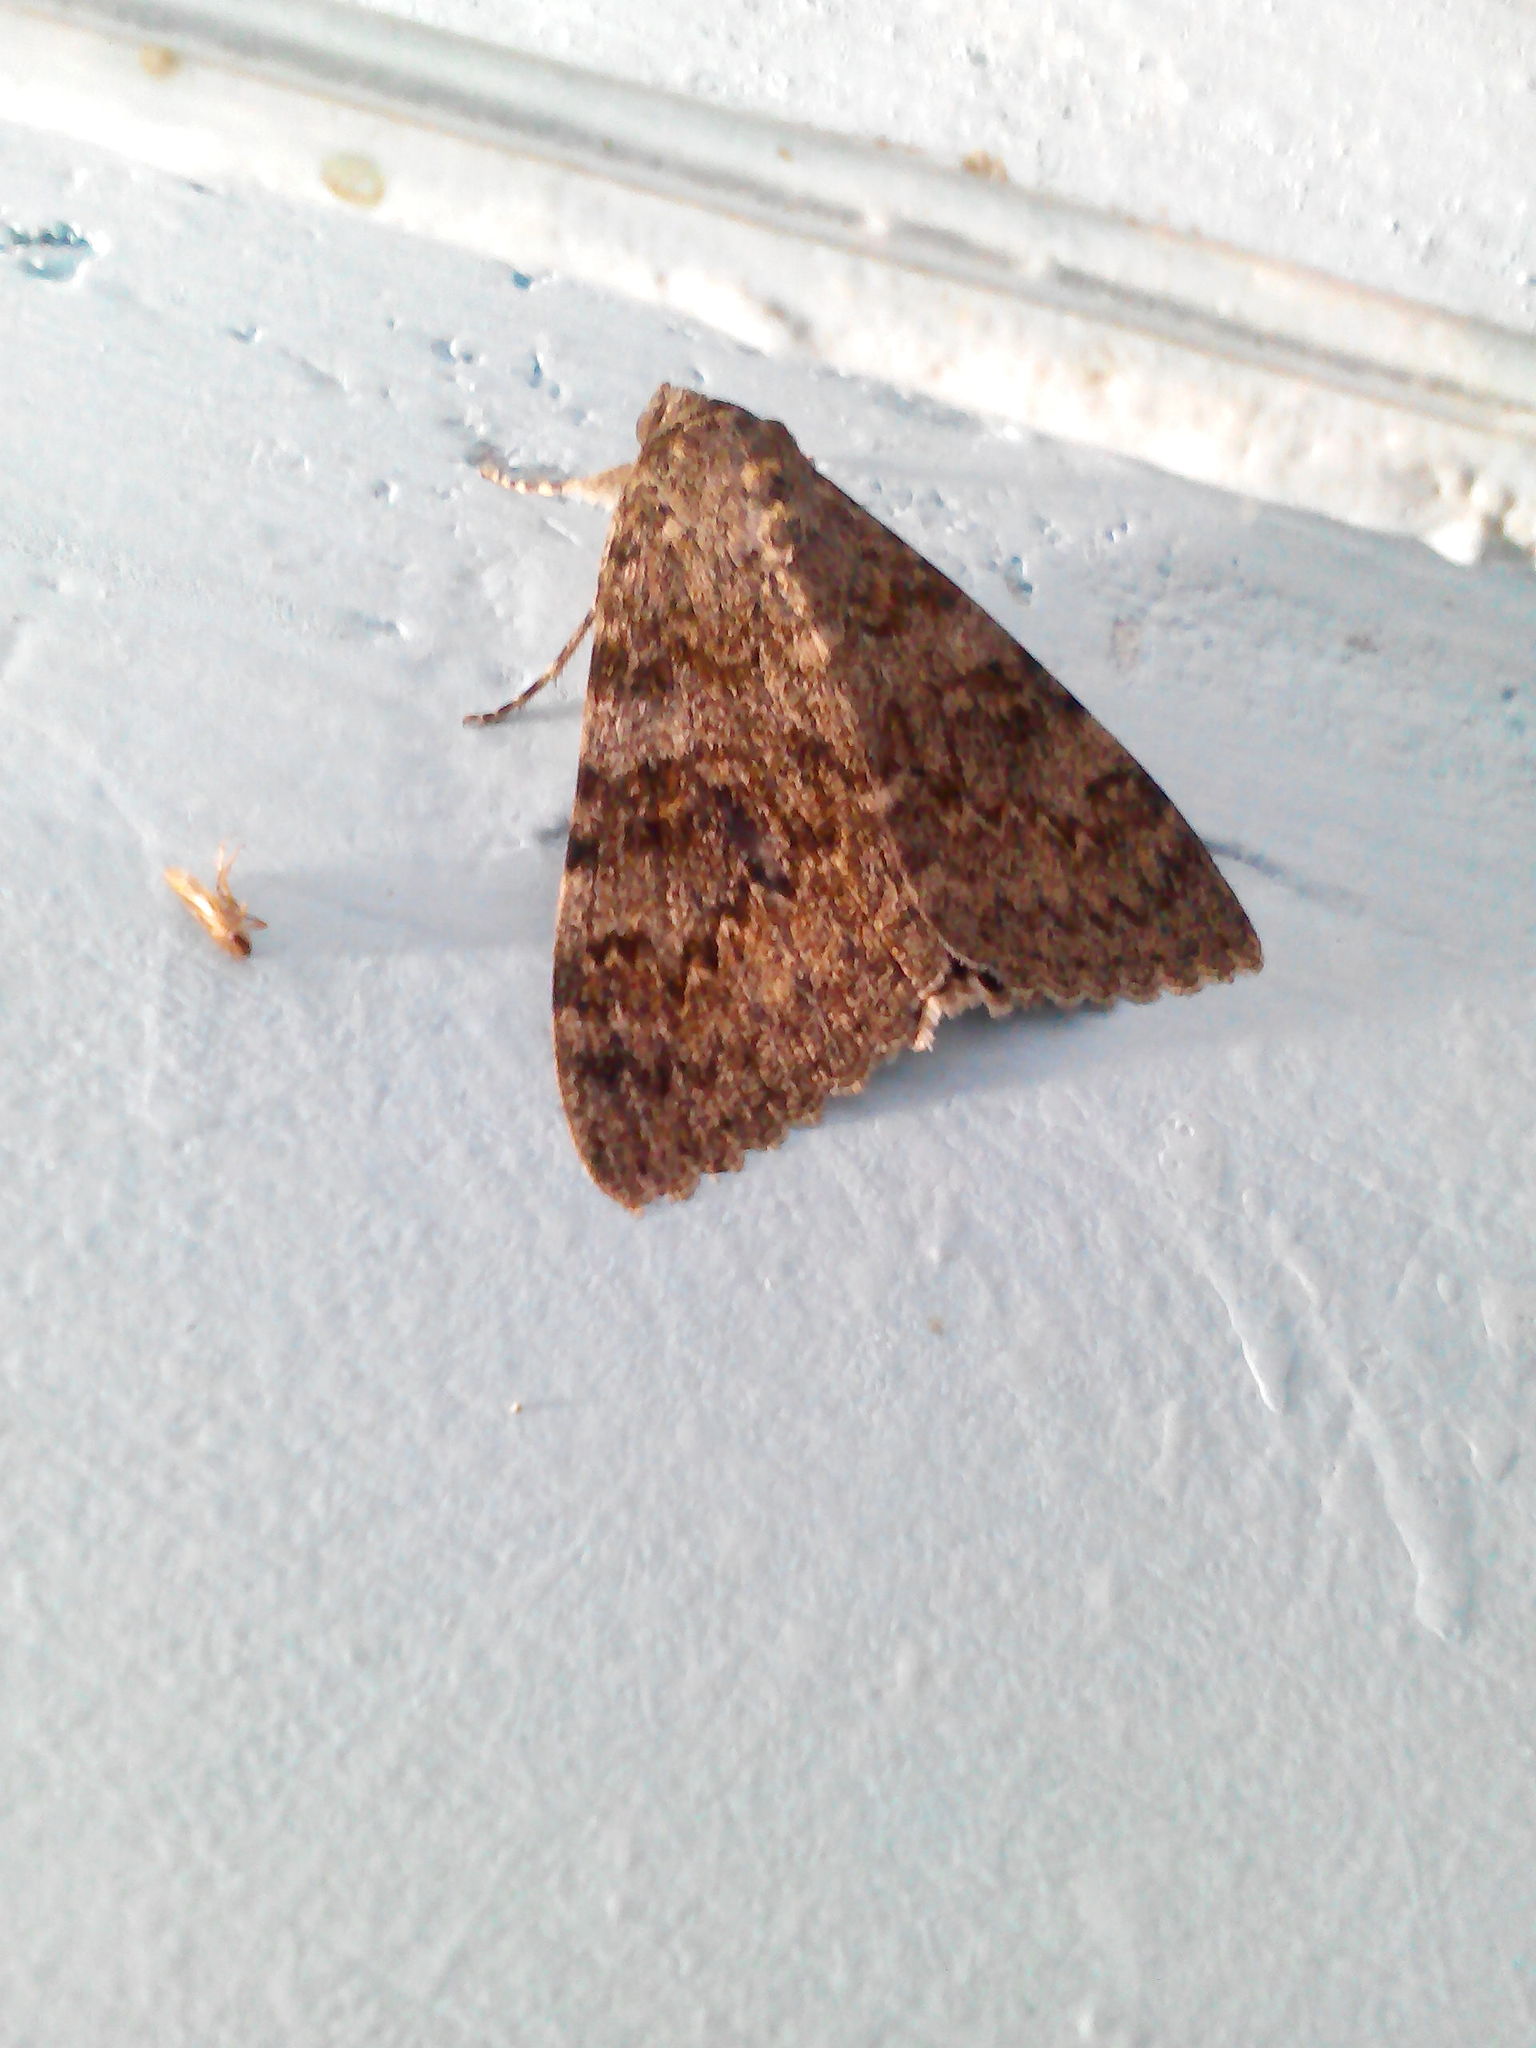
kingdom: Animalia
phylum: Arthropoda
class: Insecta
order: Lepidoptera
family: Erebidae
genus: Catocala
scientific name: Catocala elocata
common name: French red underwing
